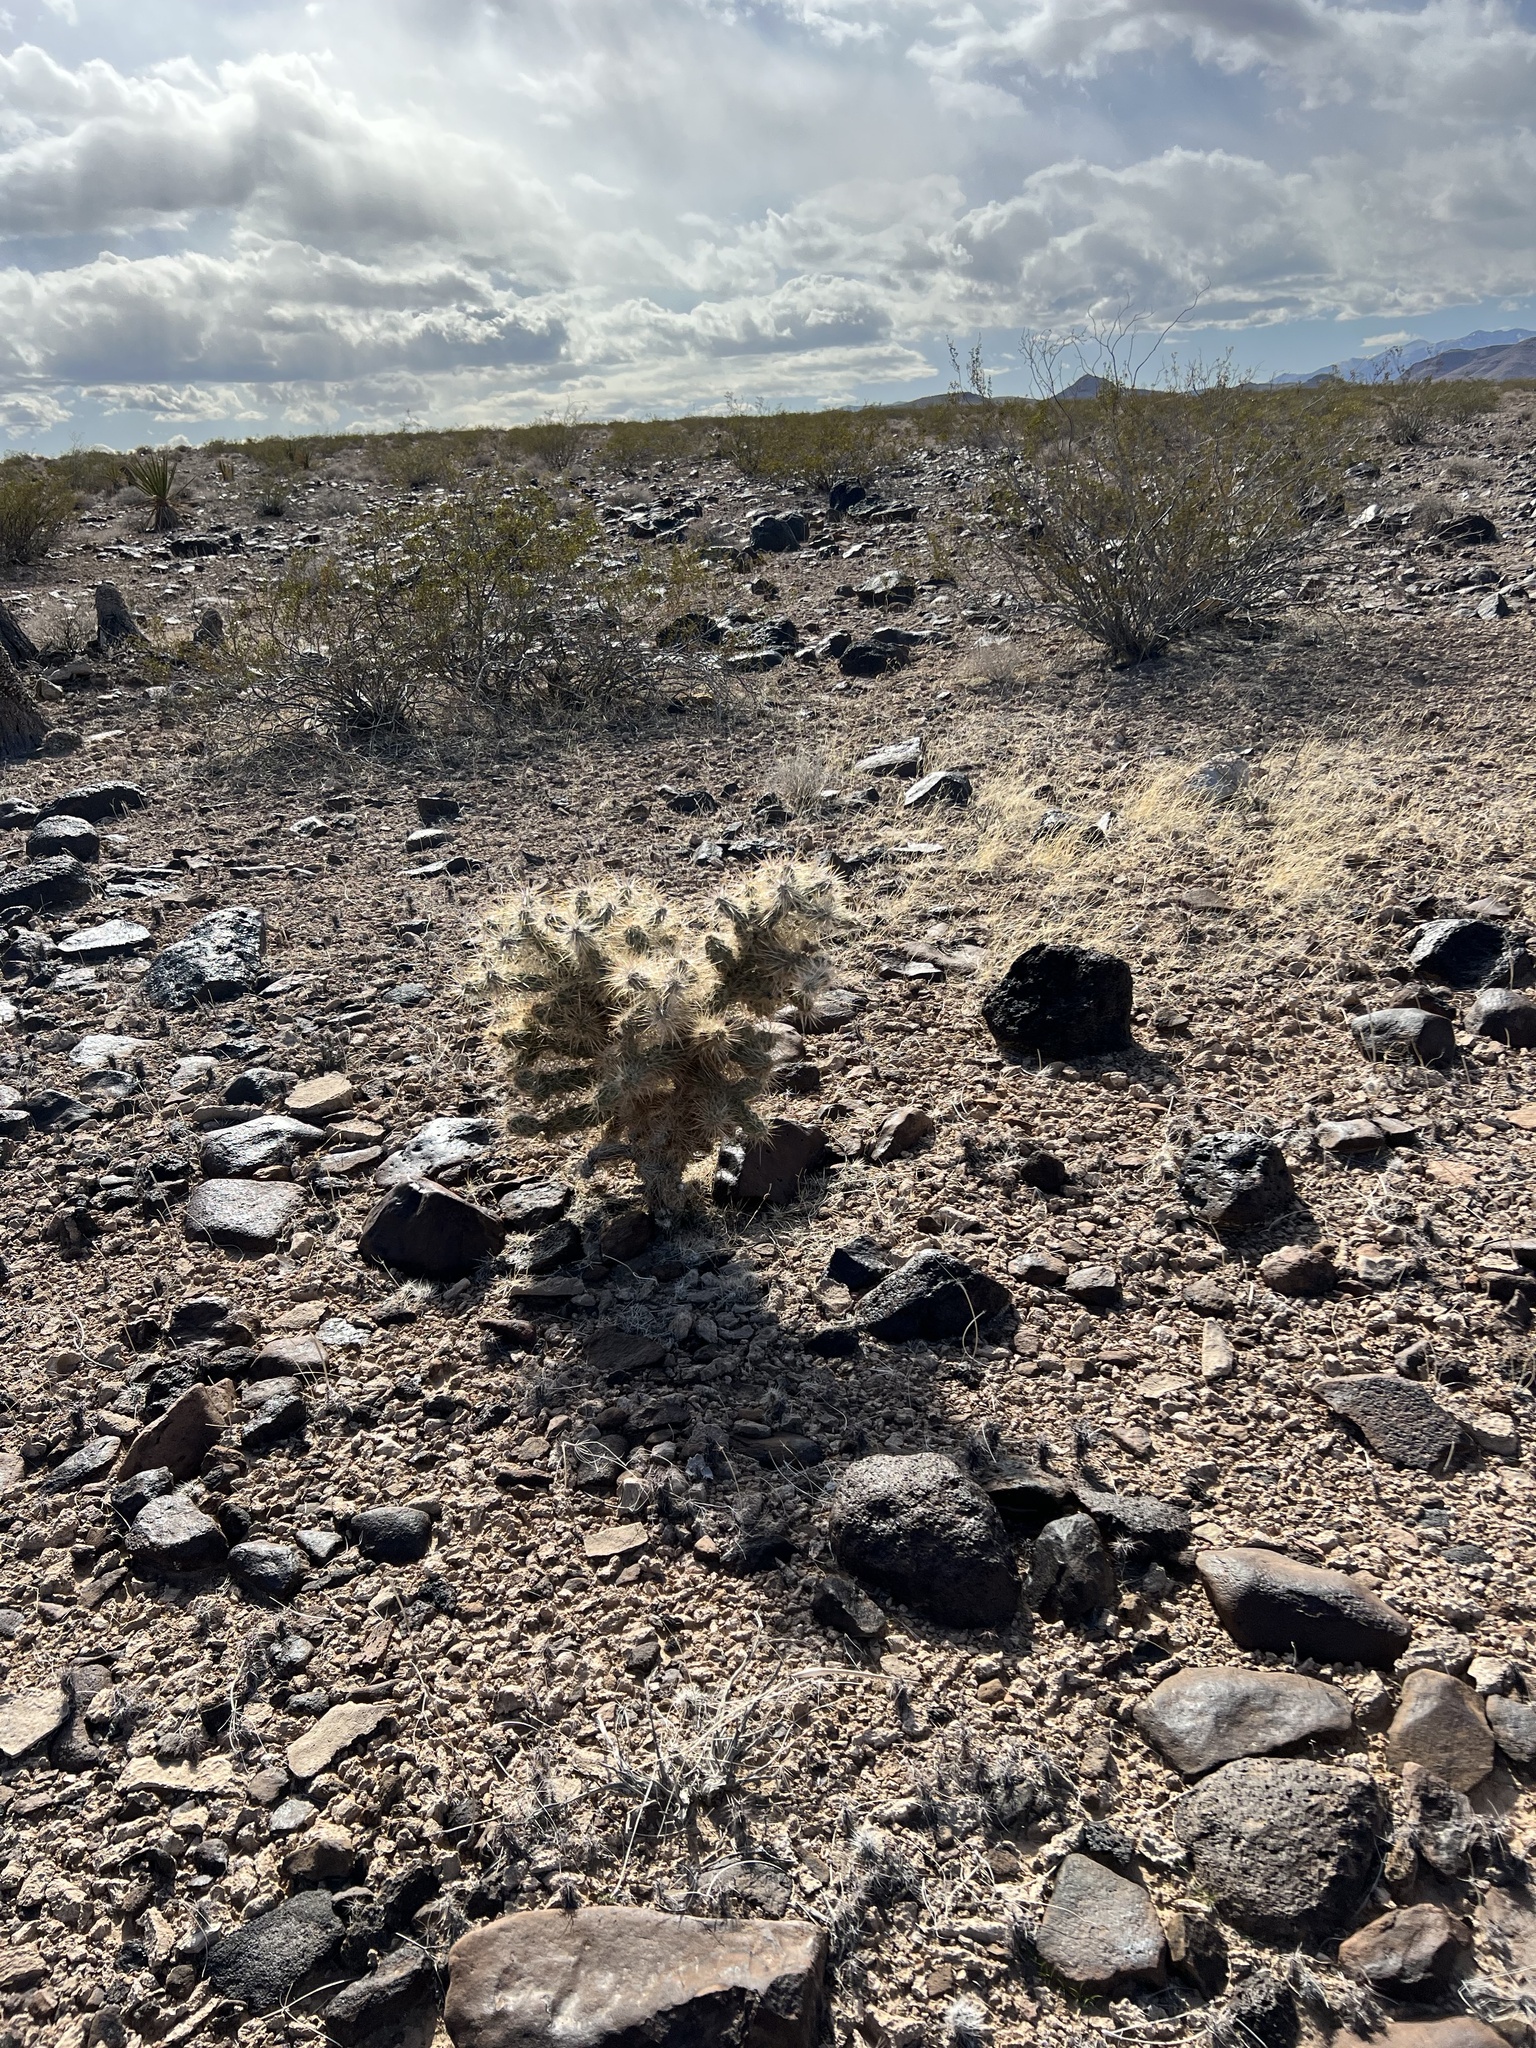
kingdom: Plantae
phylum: Tracheophyta
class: Magnoliopsida
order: Caryophyllales
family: Cactaceae
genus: Cylindropuntia
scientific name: Cylindropuntia echinocarpa
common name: Ground cholla
